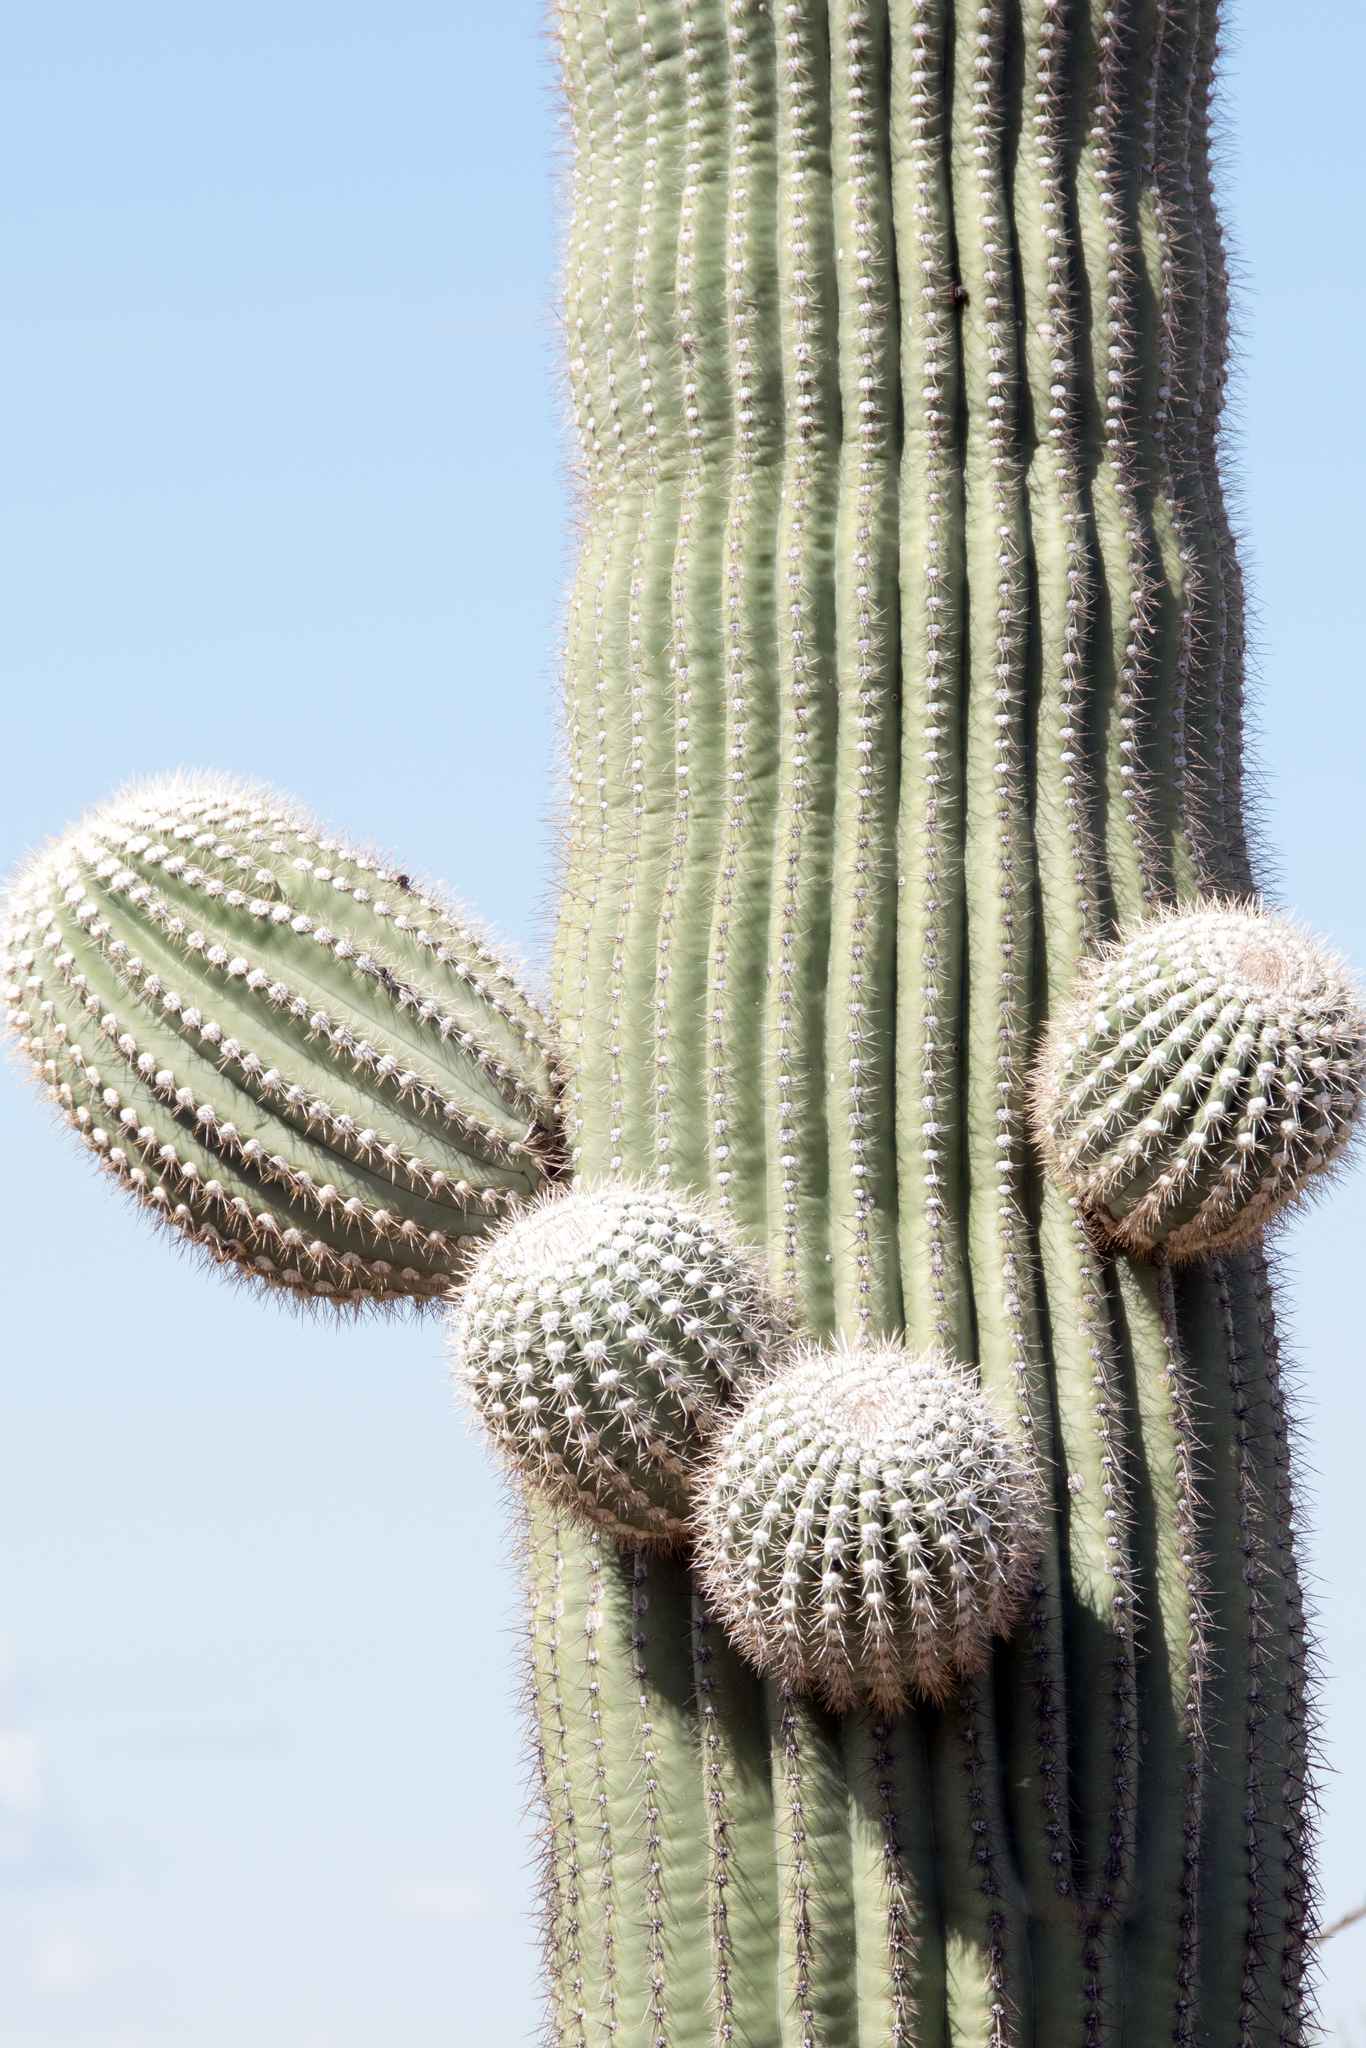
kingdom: Plantae
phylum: Tracheophyta
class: Magnoliopsida
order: Caryophyllales
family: Cactaceae
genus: Carnegiea
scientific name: Carnegiea gigantea
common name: Saguaro
